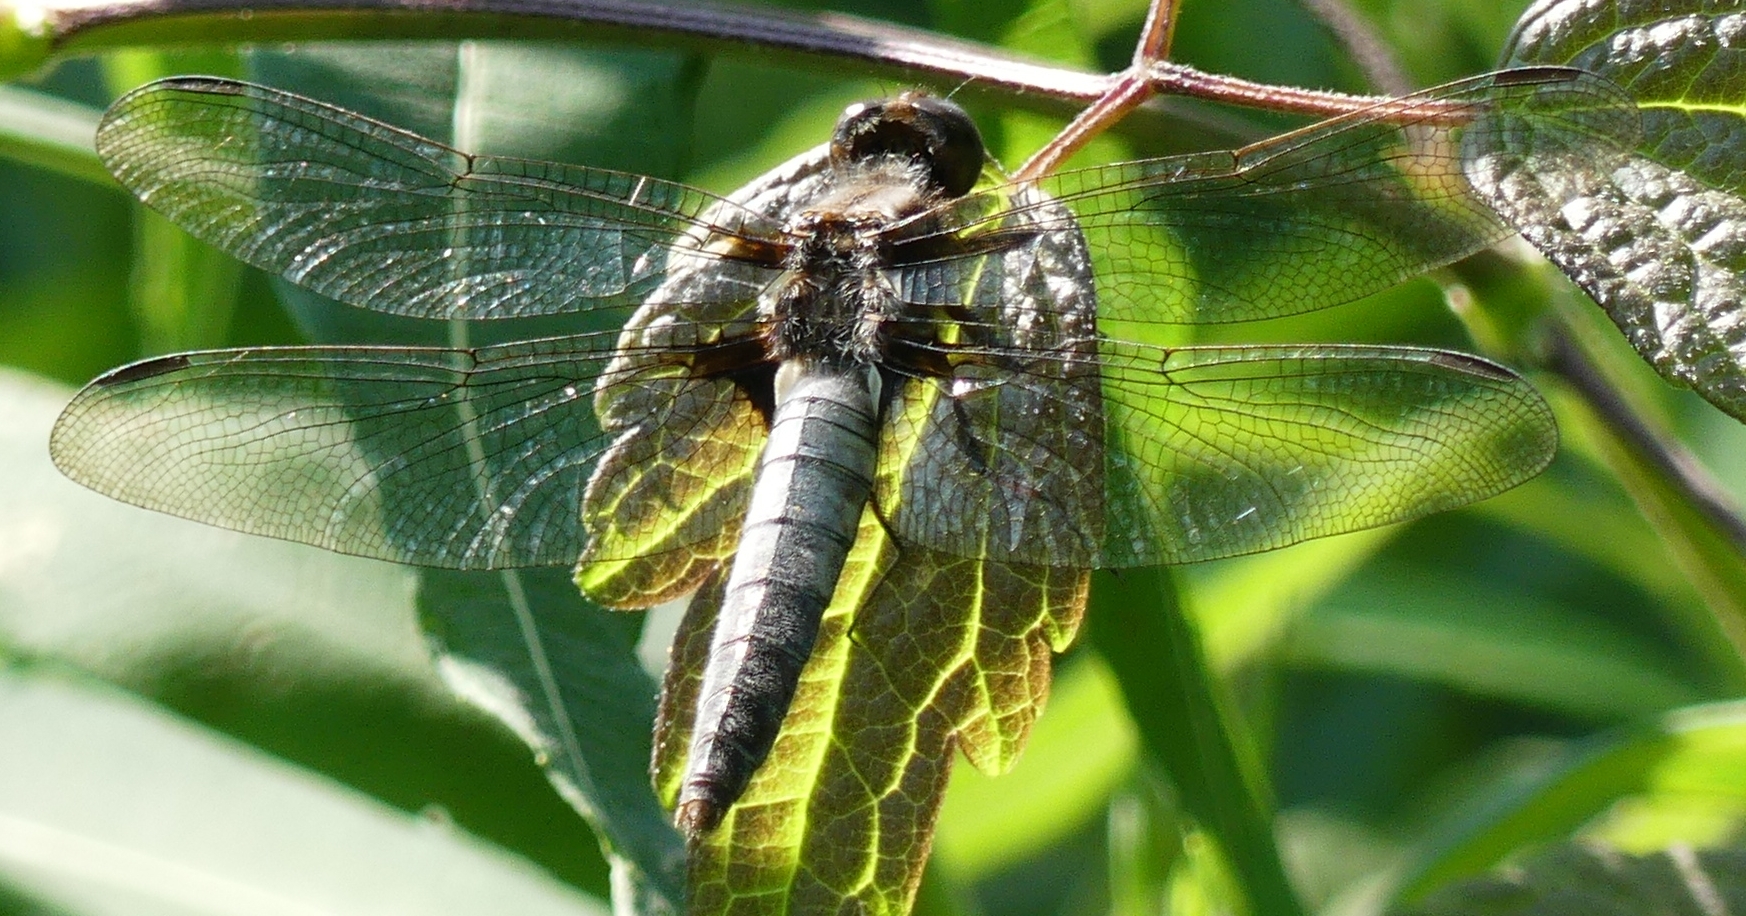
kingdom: Animalia
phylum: Arthropoda
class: Insecta
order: Odonata
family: Libellulidae
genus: Ladona
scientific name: Ladona julia
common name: Chalk-fronted corporal
